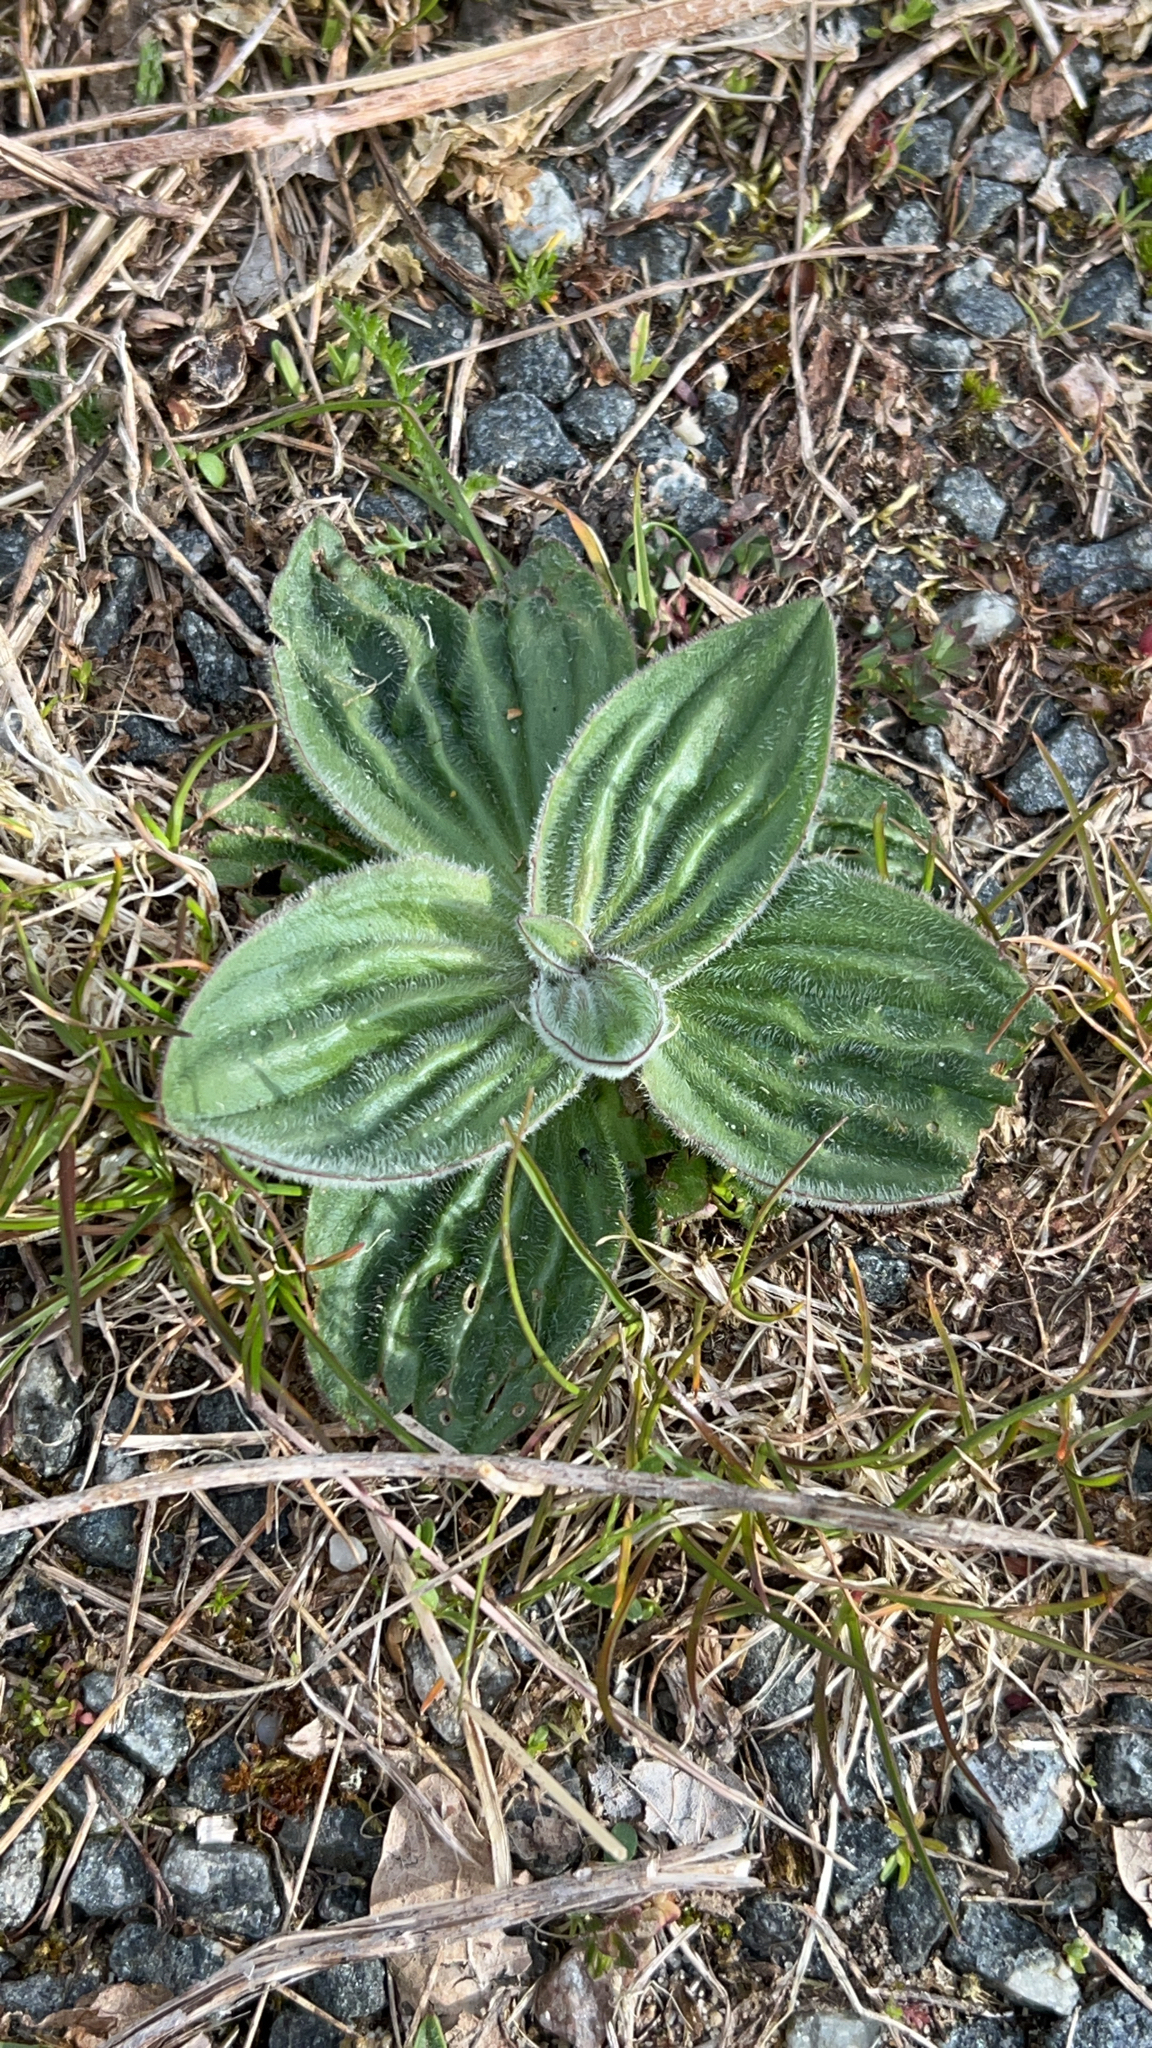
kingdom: Plantae
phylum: Tracheophyta
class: Magnoliopsida
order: Lamiales
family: Plantaginaceae
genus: Plantago
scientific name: Plantago media
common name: Hoary plantain
